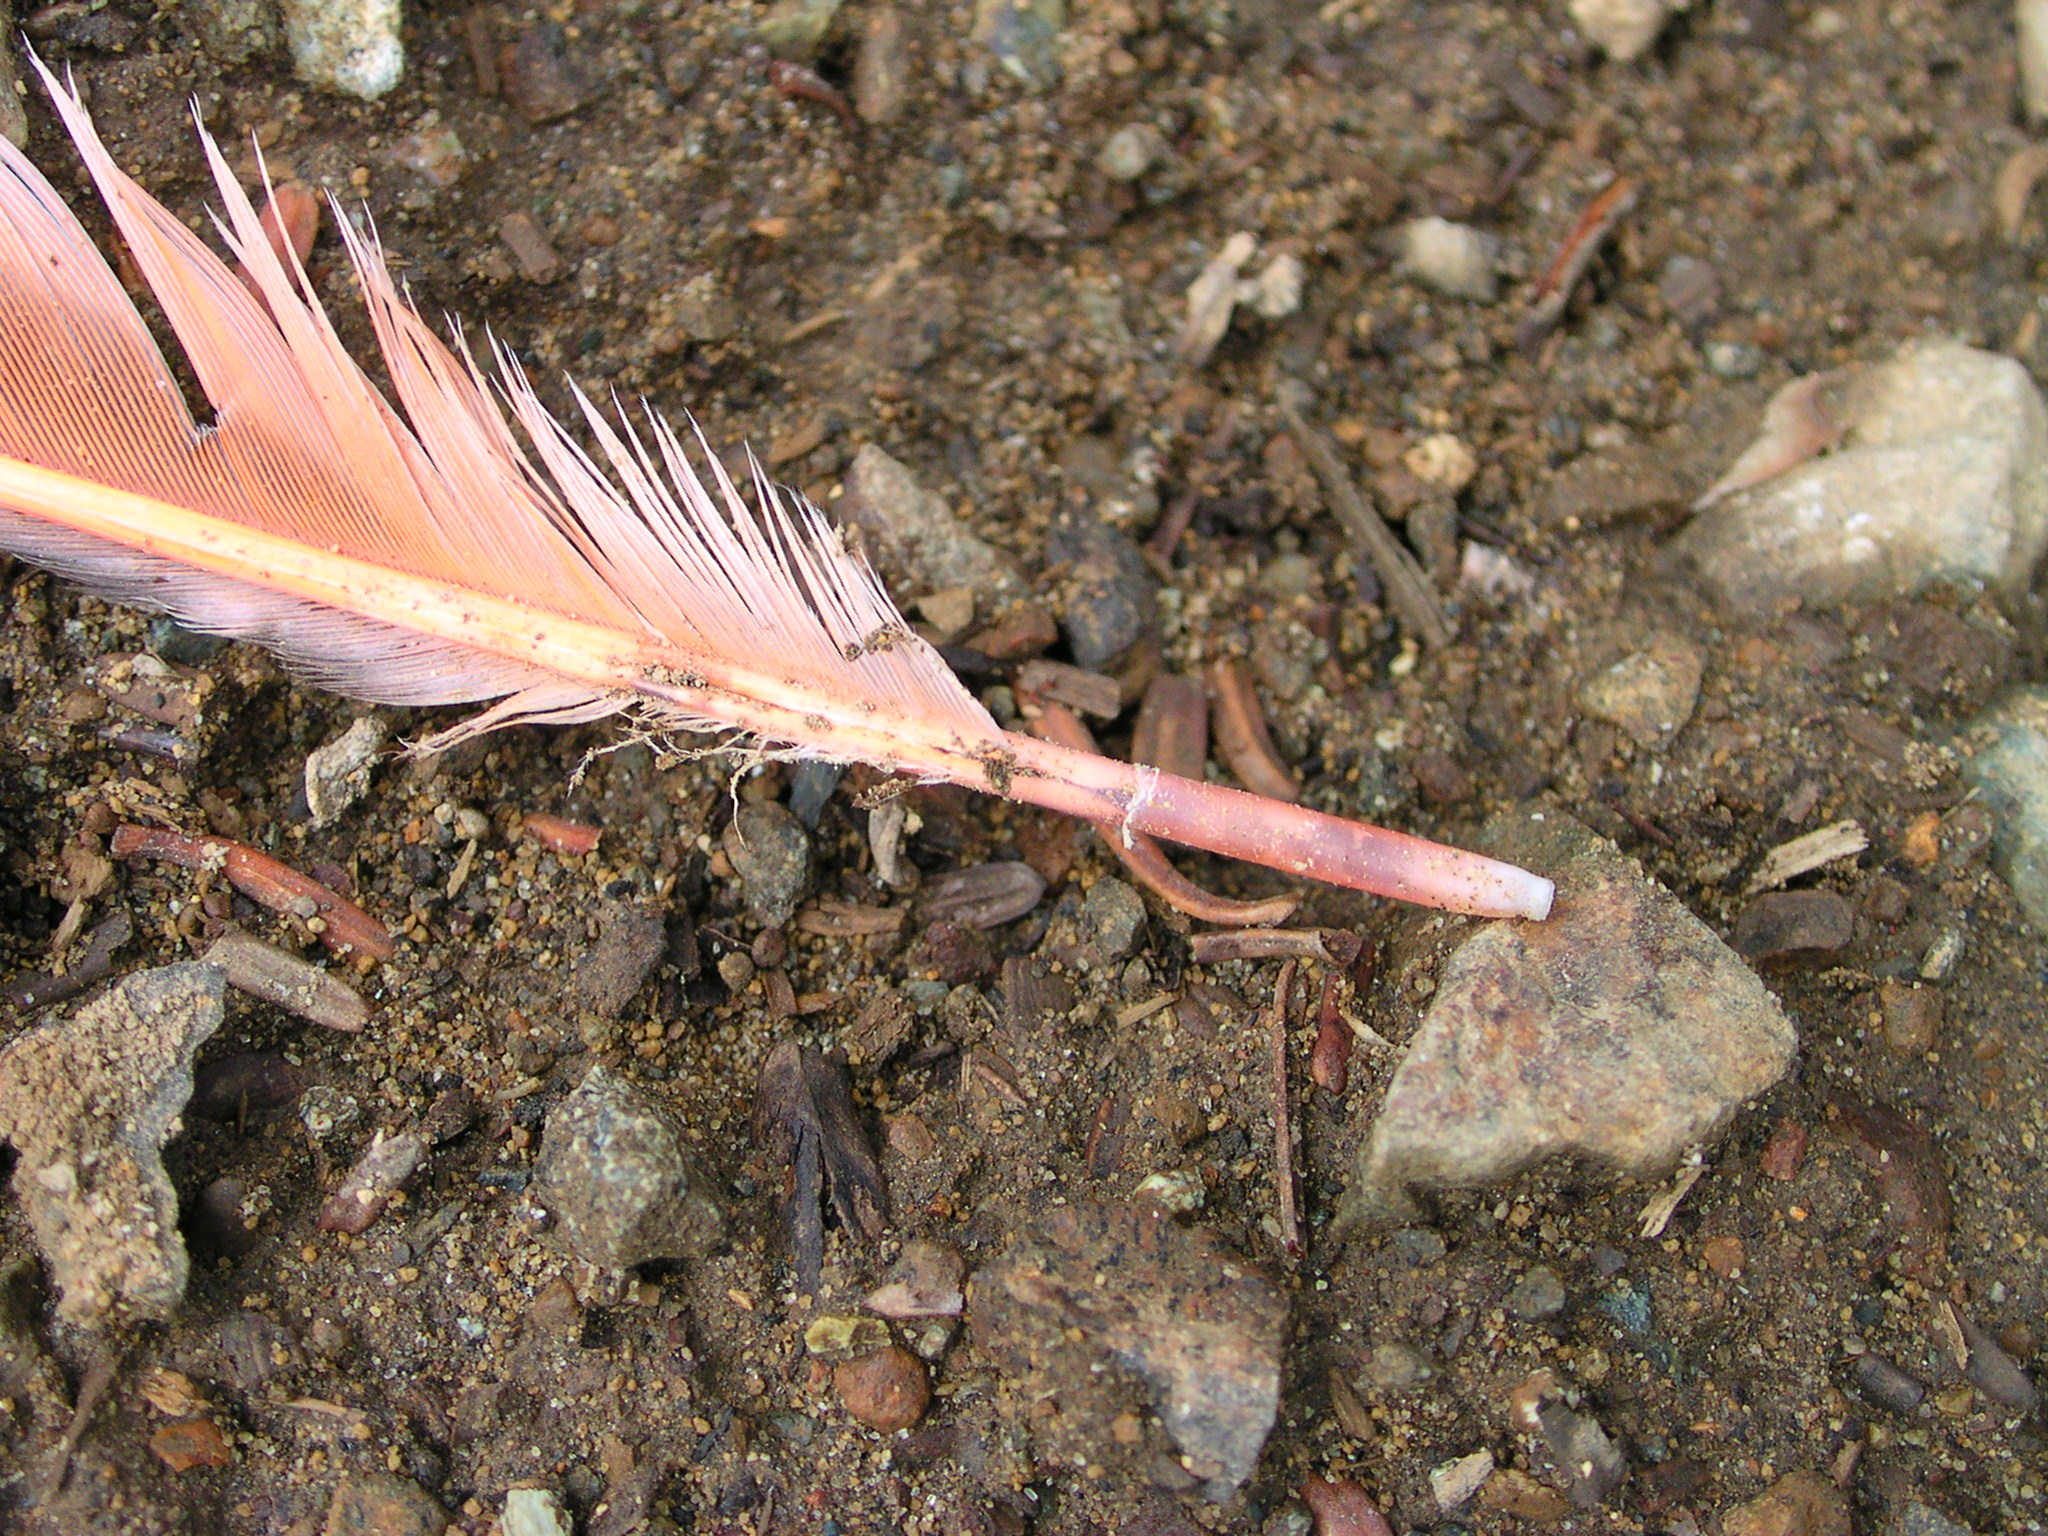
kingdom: Animalia
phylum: Chordata
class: Aves
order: Piciformes
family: Picidae
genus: Colaptes
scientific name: Colaptes auratus
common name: Northern flicker
